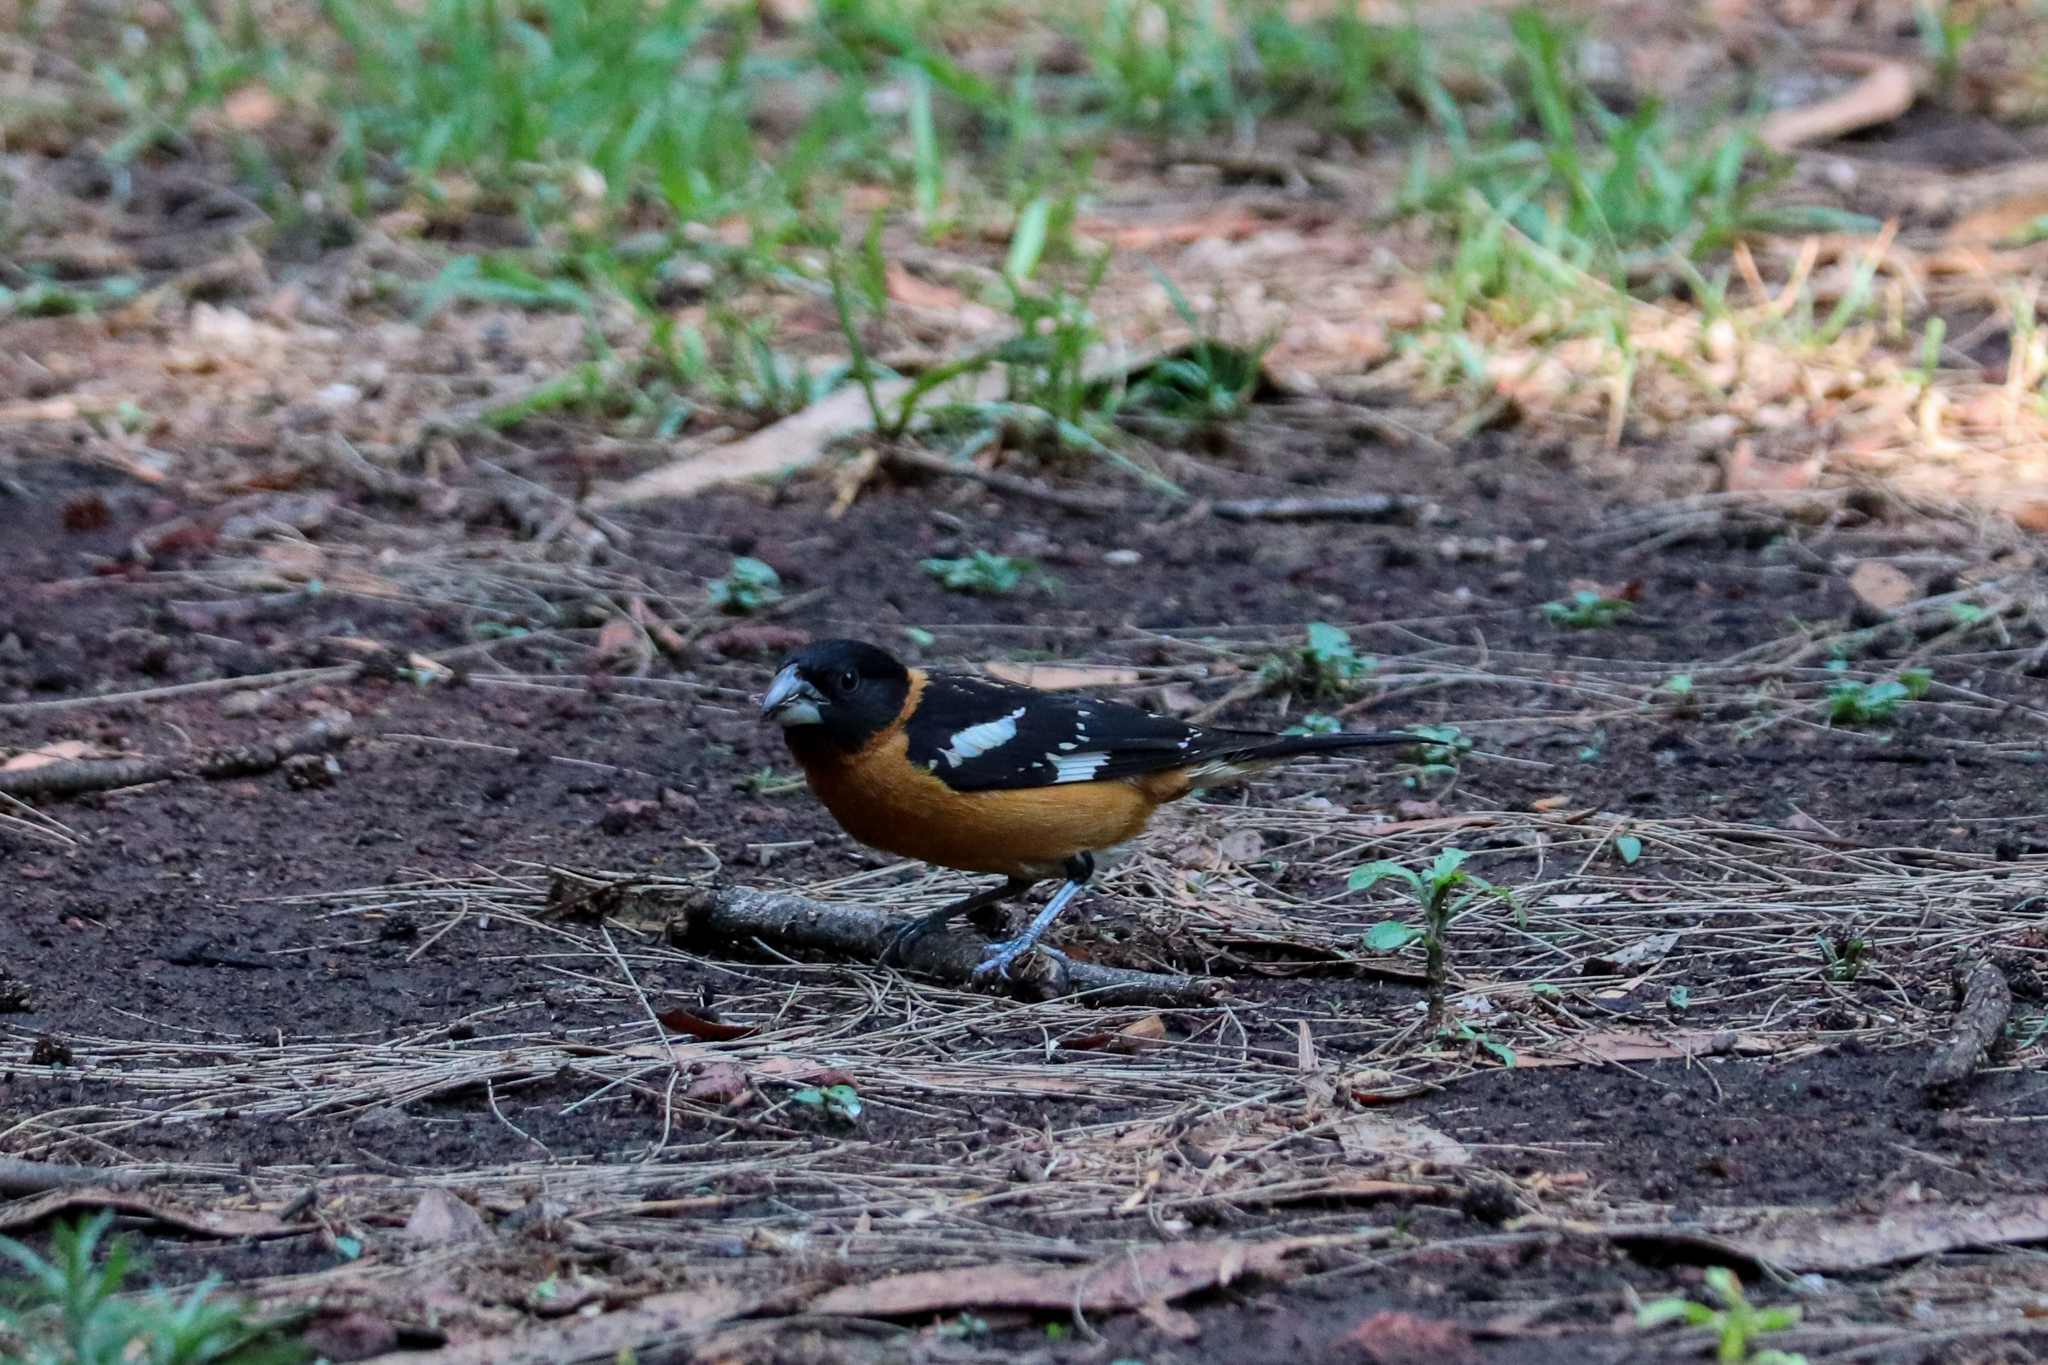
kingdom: Animalia
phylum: Chordata
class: Aves
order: Passeriformes
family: Cardinalidae
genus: Pheucticus
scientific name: Pheucticus melanocephalus
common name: Black-headed grosbeak
